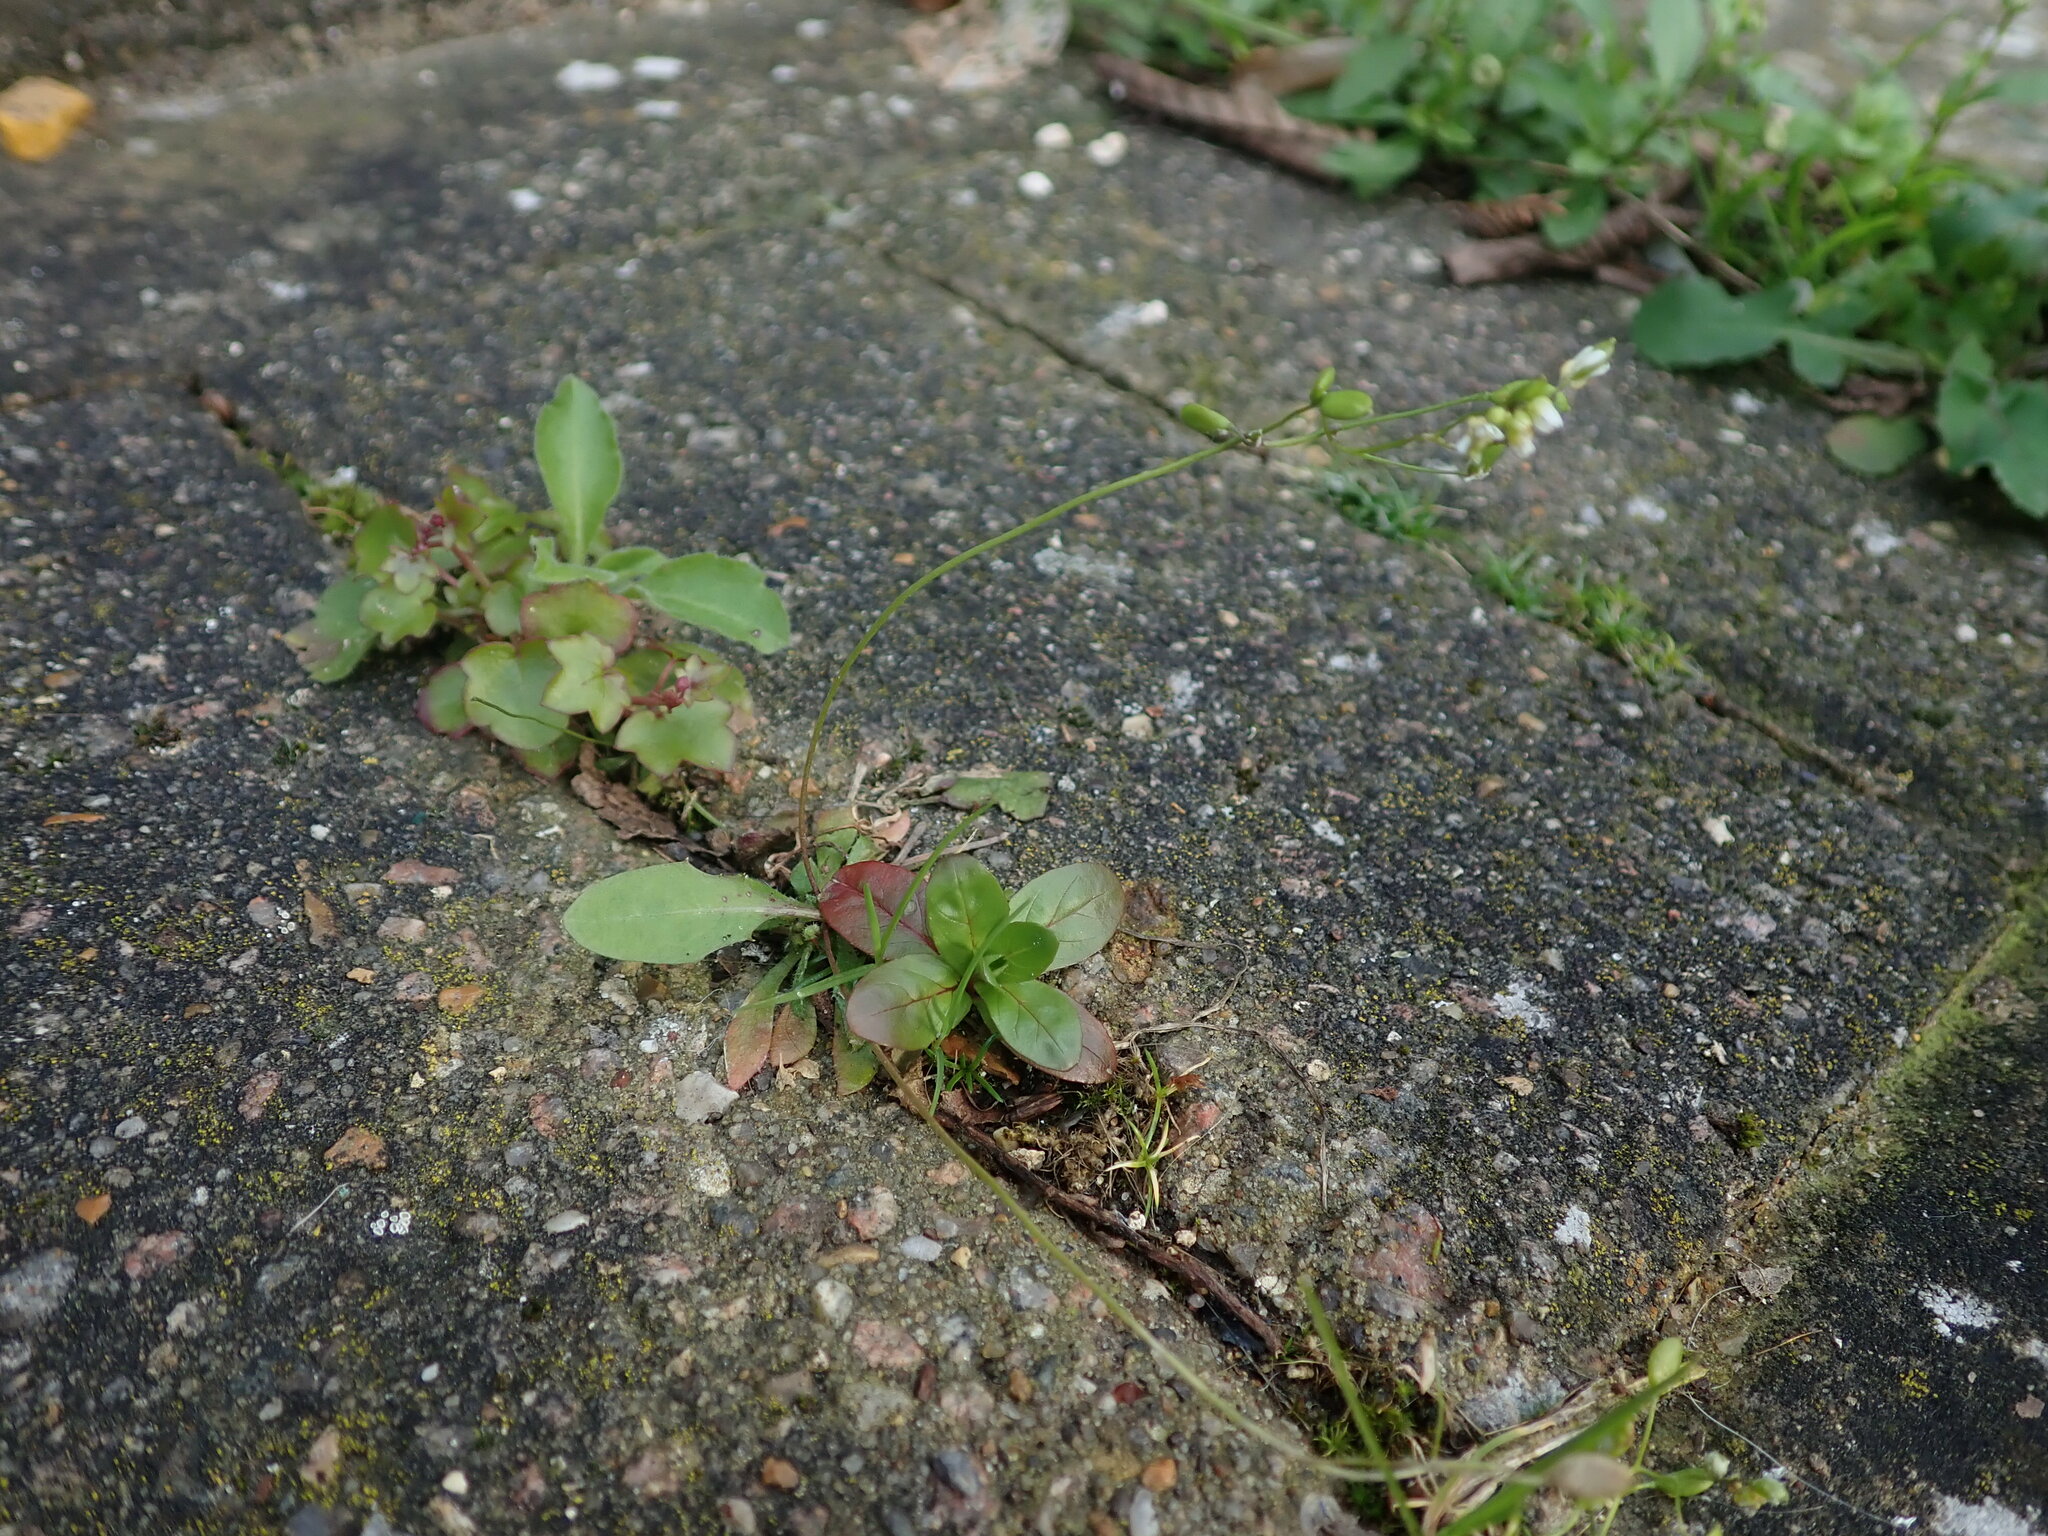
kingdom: Plantae
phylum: Tracheophyta
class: Magnoliopsida
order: Brassicales
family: Brassicaceae
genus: Draba
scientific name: Draba verna
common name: Spring draba
